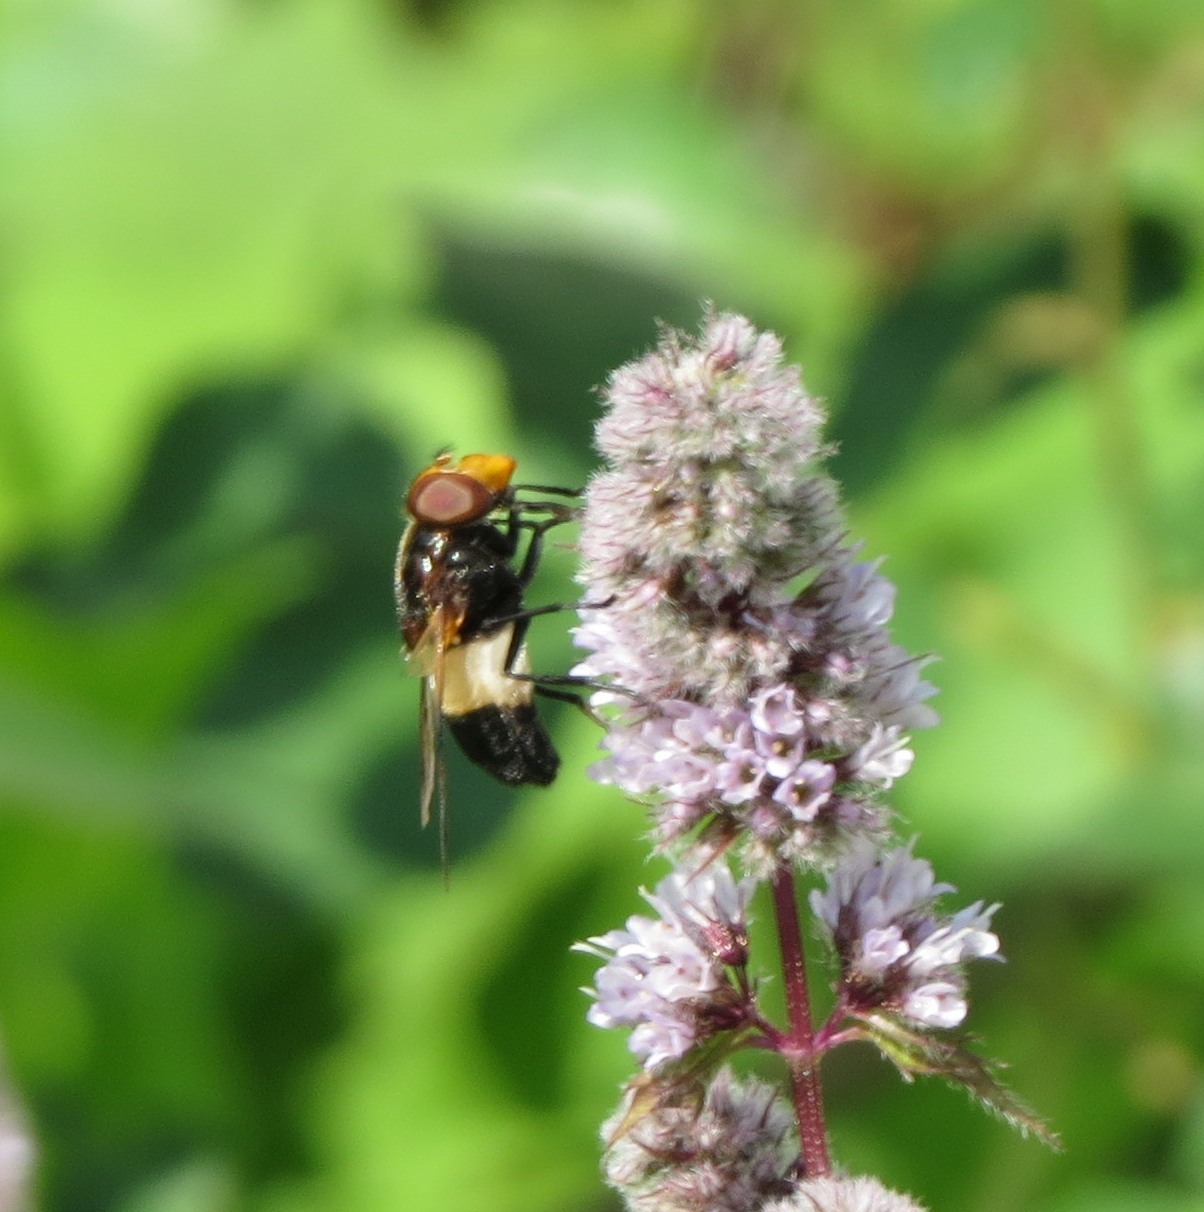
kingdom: Animalia
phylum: Arthropoda
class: Insecta
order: Diptera
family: Syrphidae
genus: Volucella
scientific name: Volucella pellucens
